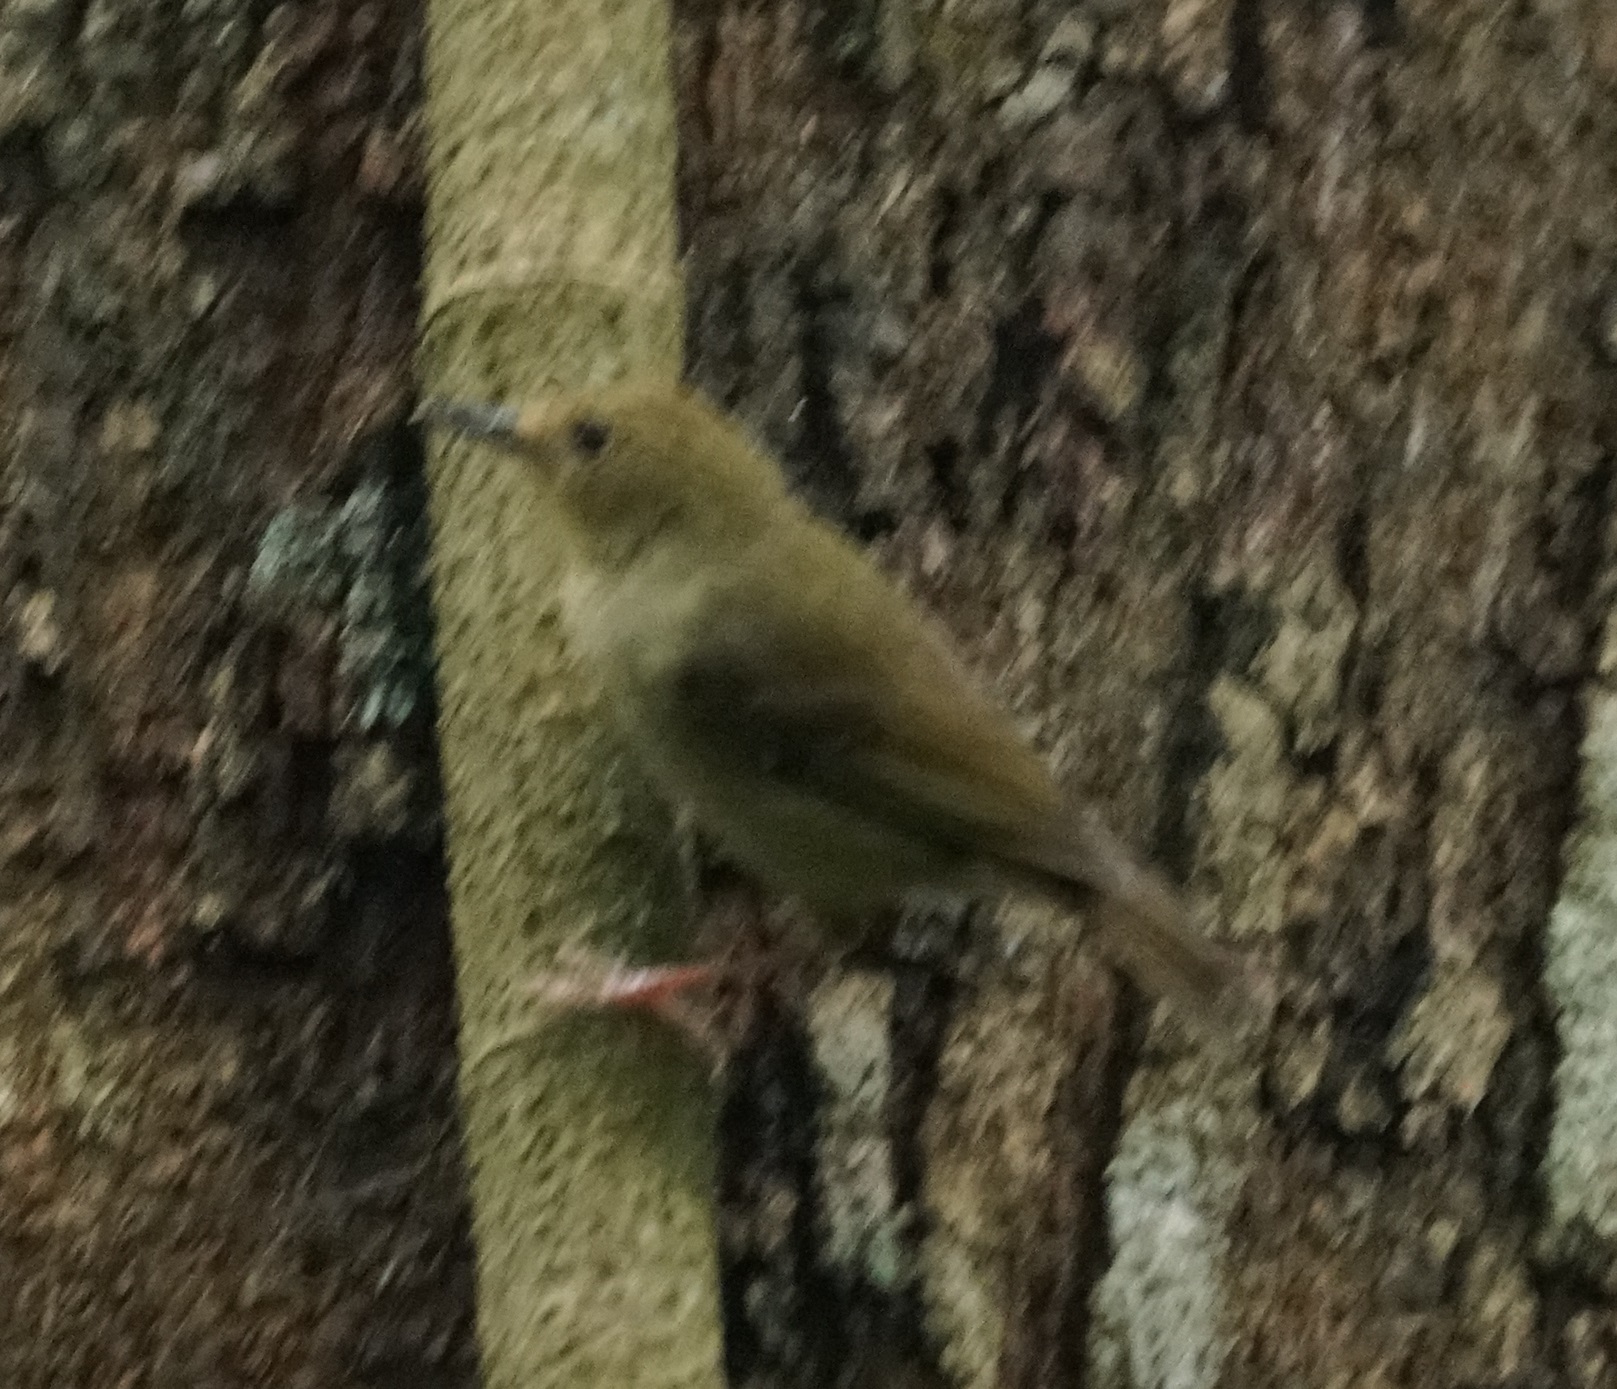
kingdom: Animalia
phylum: Chordata
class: Aves
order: Passeriformes
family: Acanthizidae
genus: Sericornis
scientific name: Sericornis magnirostra
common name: Large-billed scrubwren
